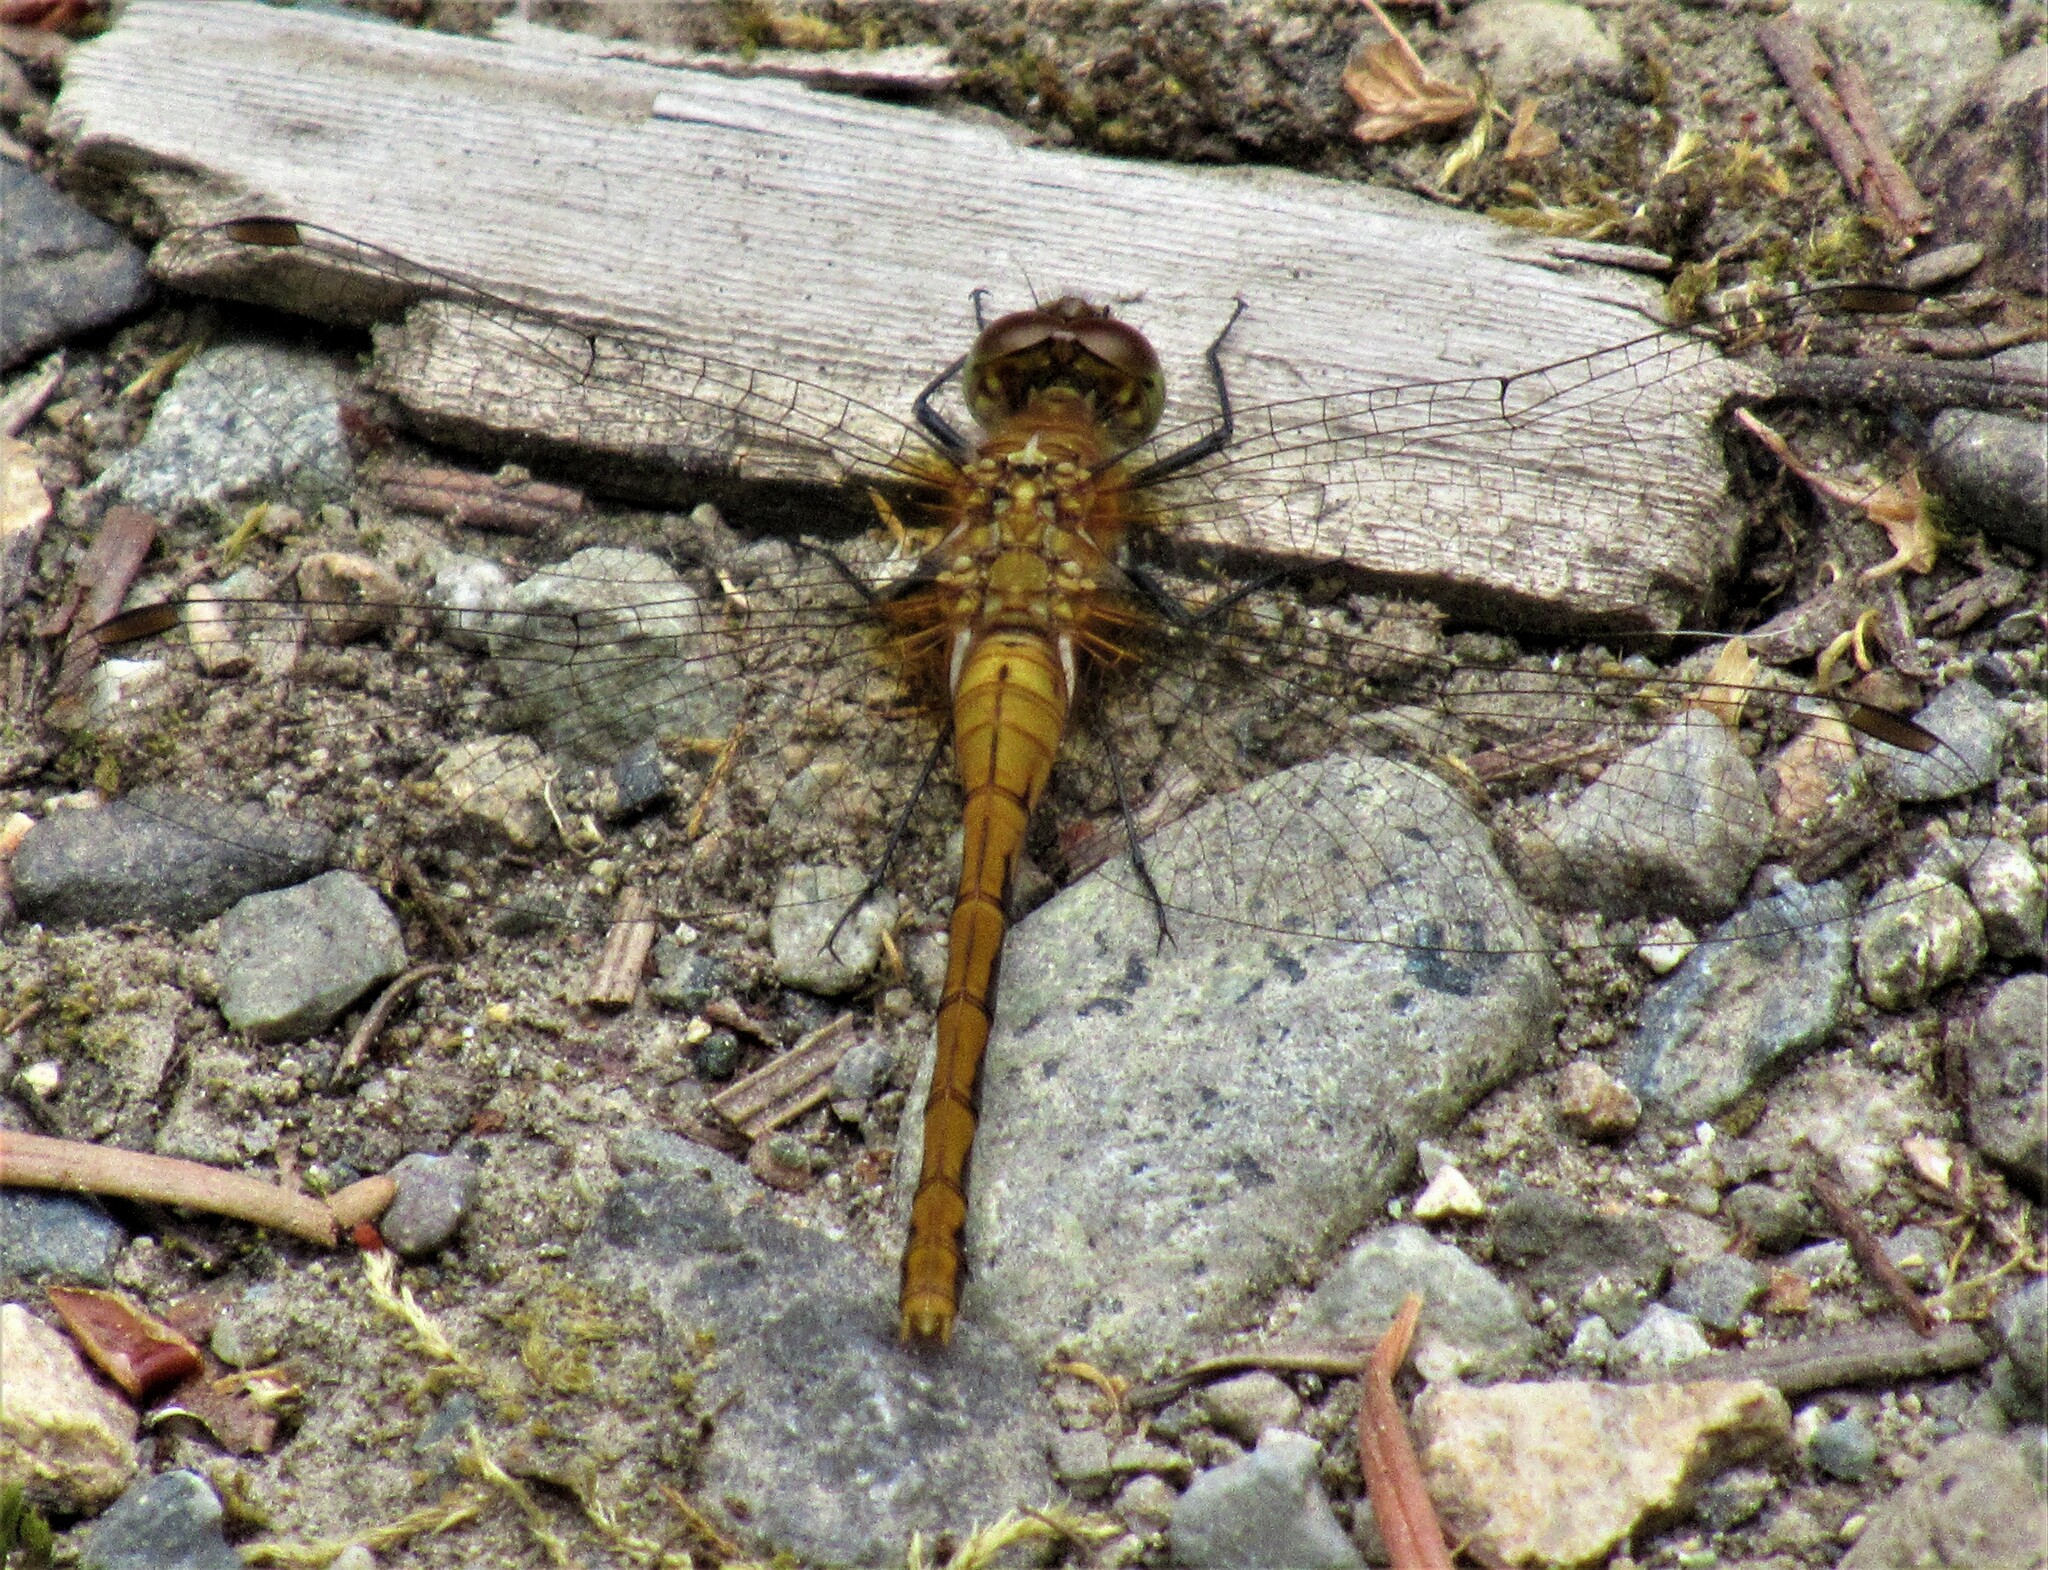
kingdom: Animalia
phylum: Arthropoda
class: Insecta
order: Odonata
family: Libellulidae
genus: Sympetrum
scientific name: Sympetrum obtrusum
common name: White-faced meadowhawk
